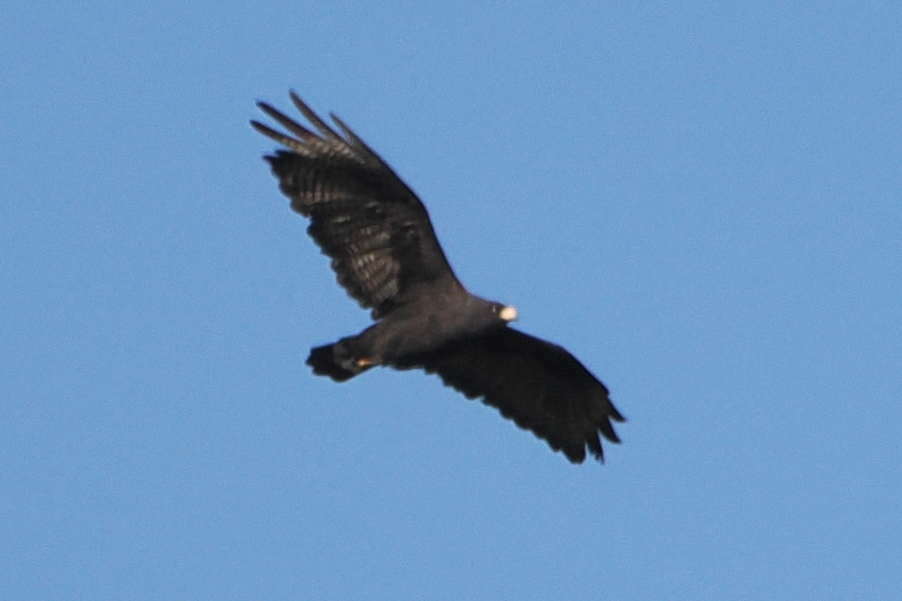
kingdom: Animalia
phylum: Chordata
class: Aves
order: Accipitriformes
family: Accipitridae
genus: Buteo
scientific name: Buteo albonotatus
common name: Zone-tailed hawk
